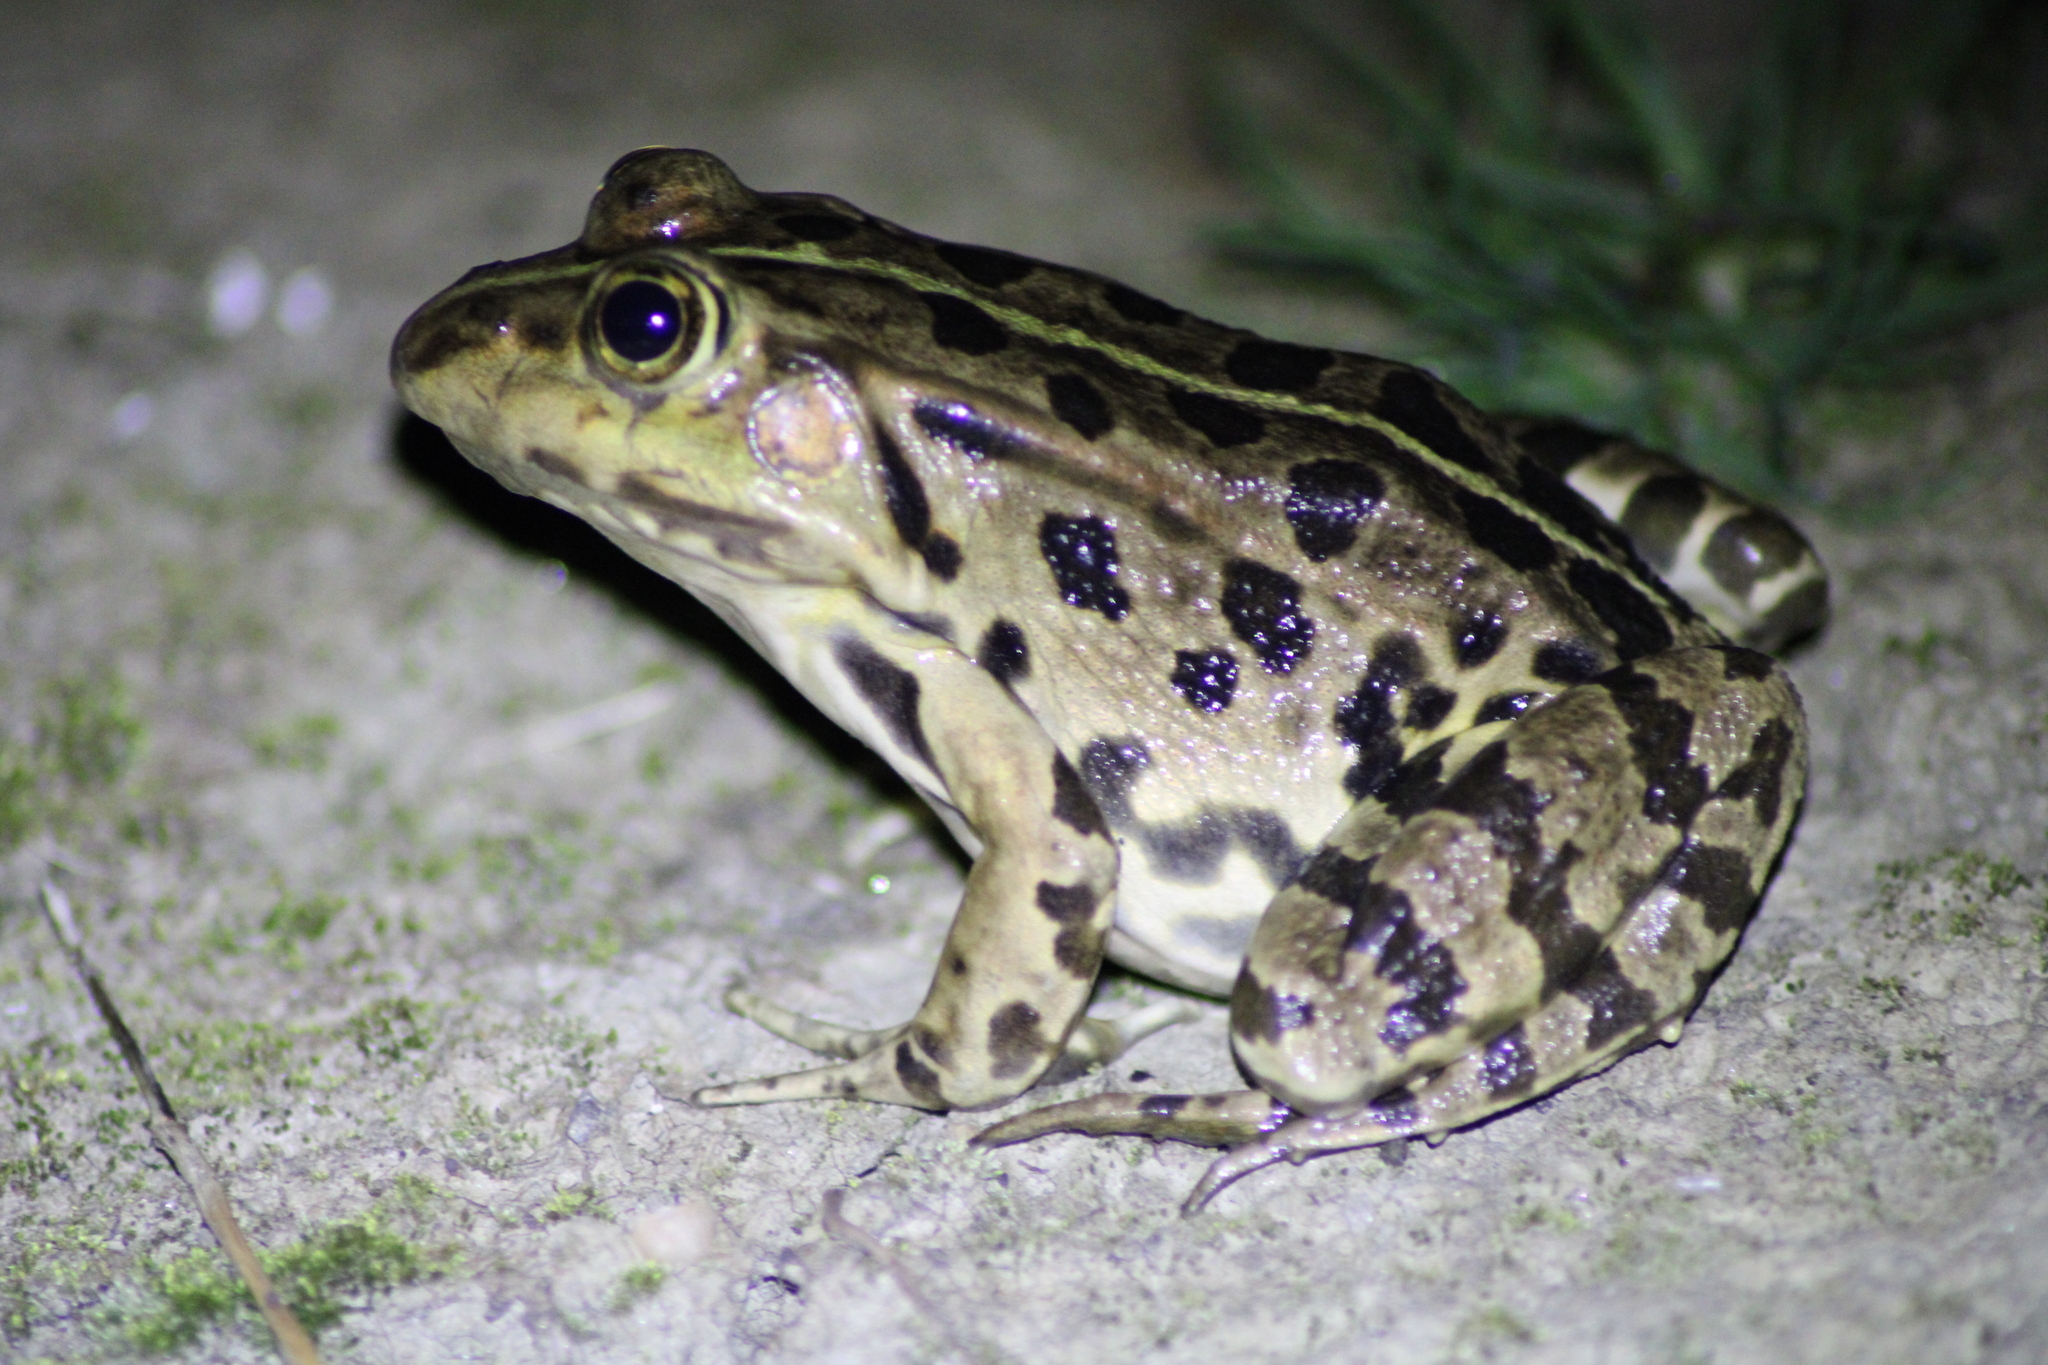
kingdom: Animalia
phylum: Chordata
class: Amphibia
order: Anura
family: Ranidae
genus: Pelophylax
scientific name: Pelophylax
